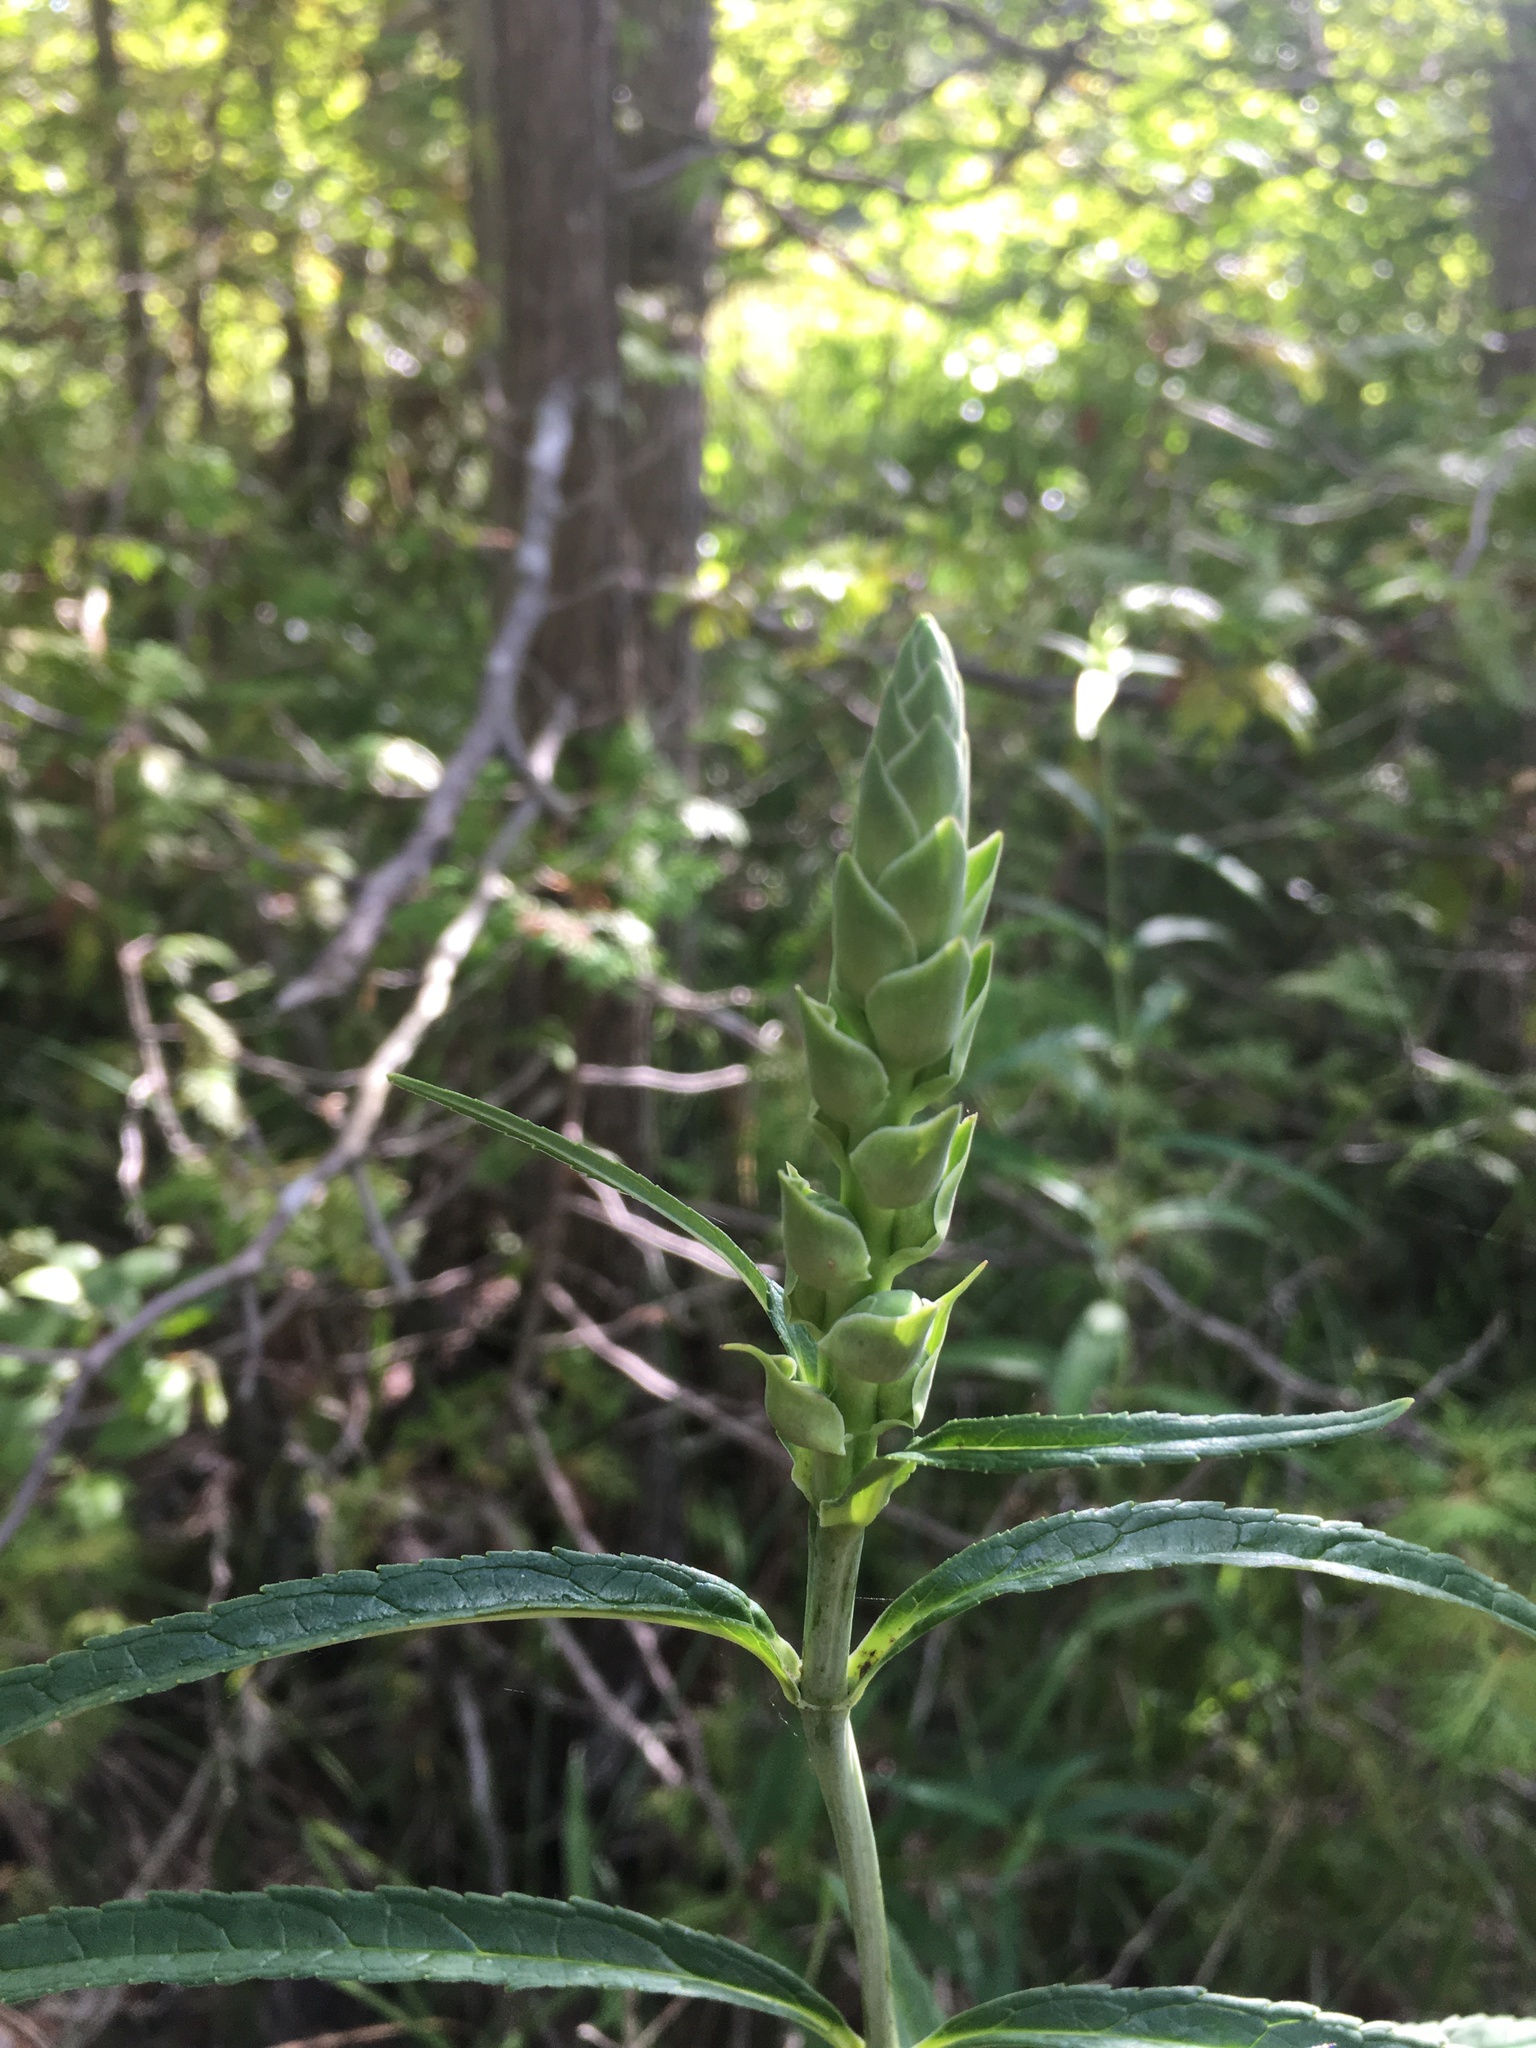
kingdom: Plantae
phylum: Tracheophyta
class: Magnoliopsida
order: Lamiales
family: Plantaginaceae
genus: Chelone
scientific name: Chelone glabra
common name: Snakehead
